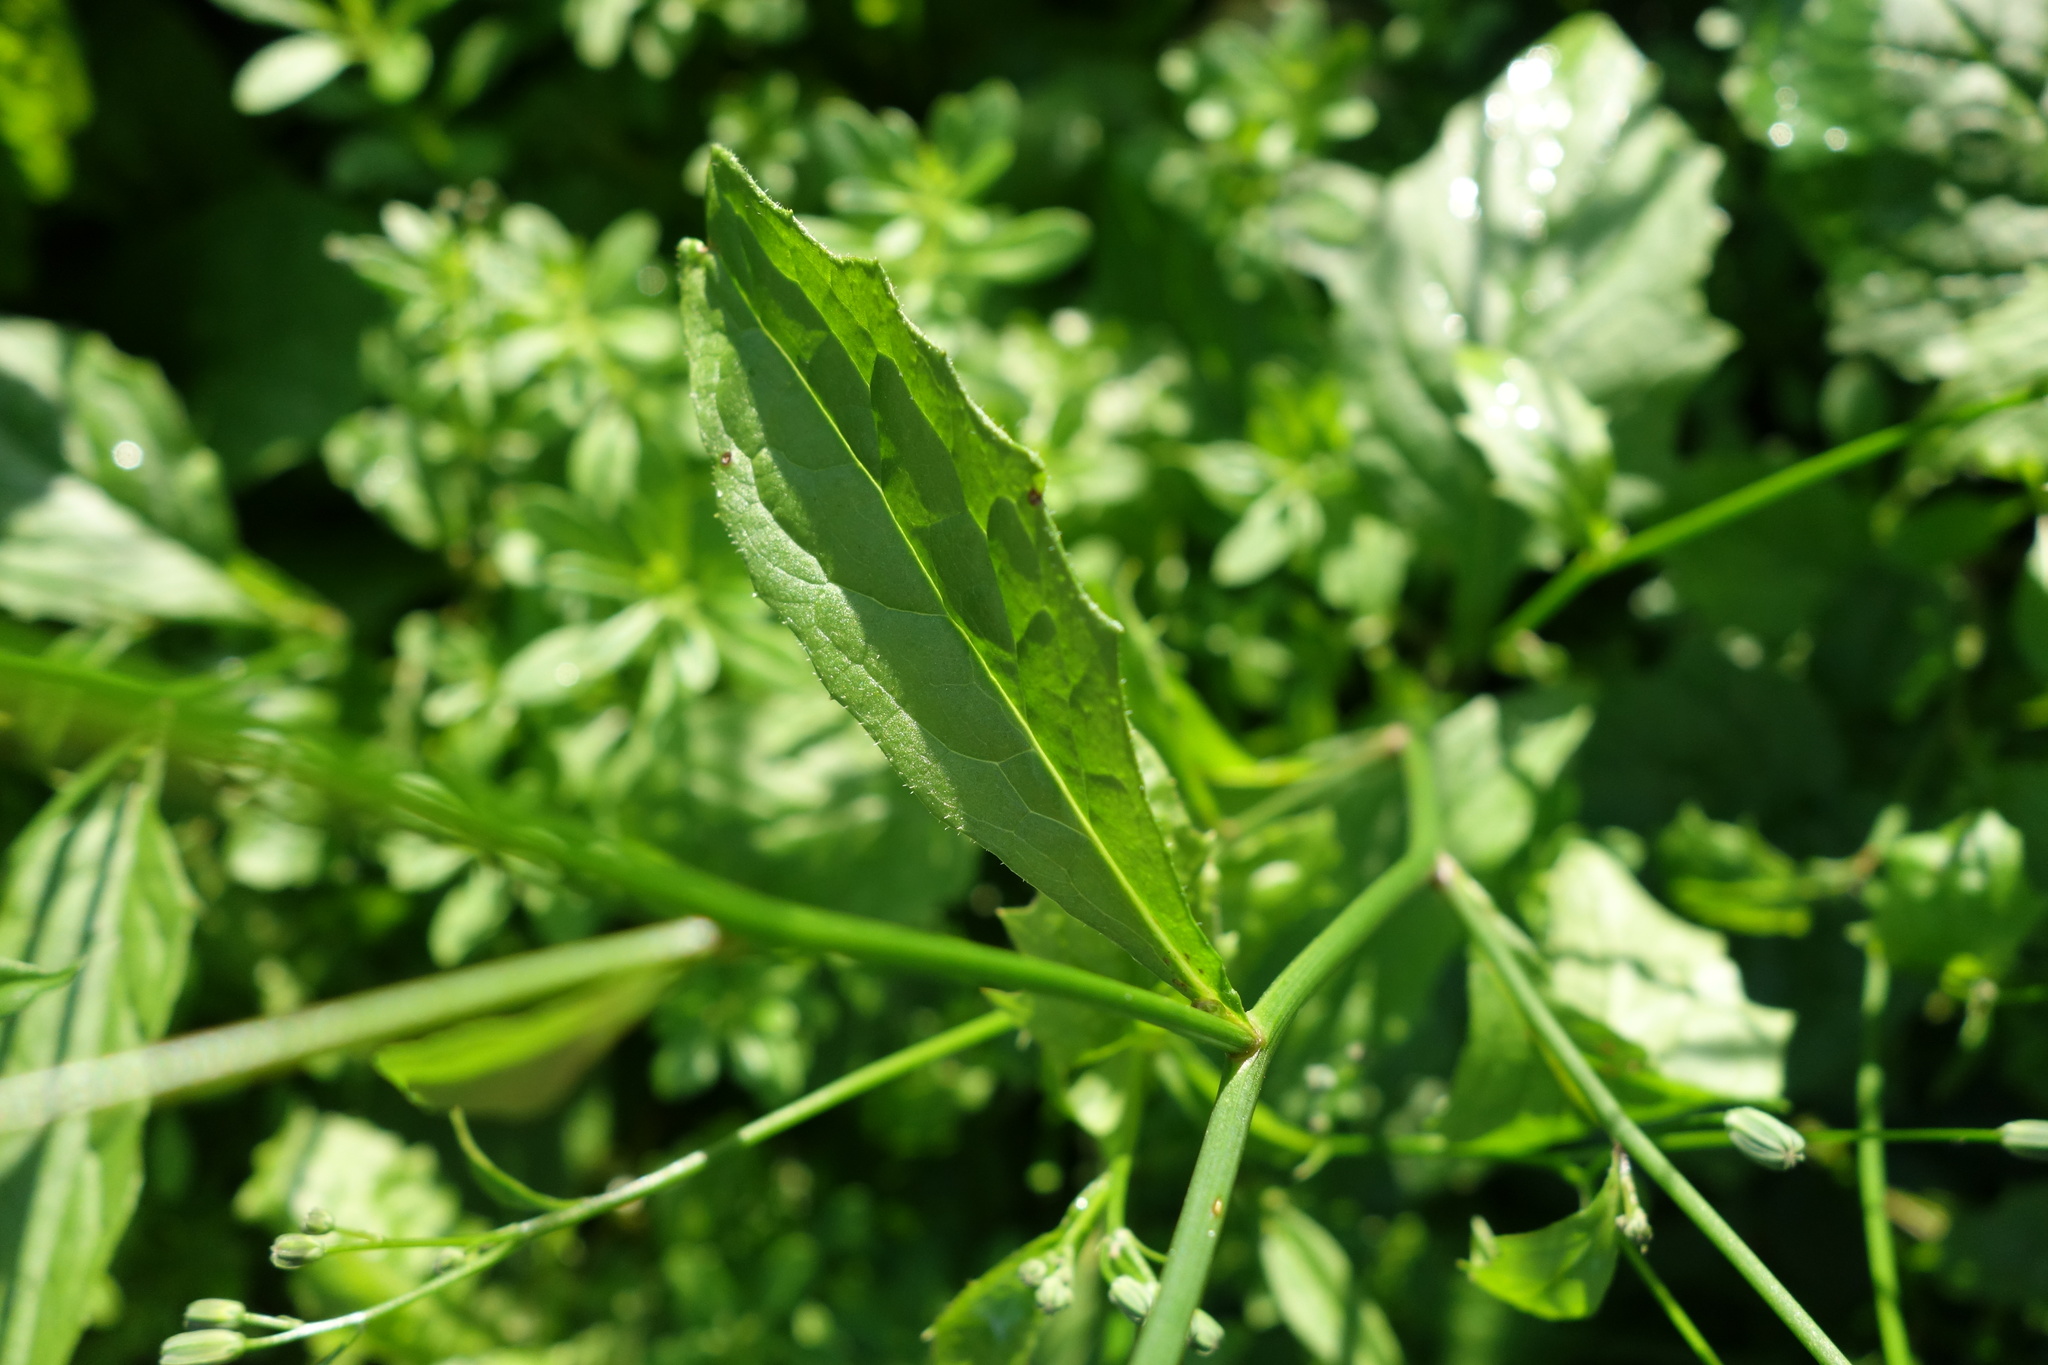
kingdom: Plantae
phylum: Tracheophyta
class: Magnoliopsida
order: Asterales
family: Asteraceae
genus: Lapsana
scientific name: Lapsana communis
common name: Nipplewort
